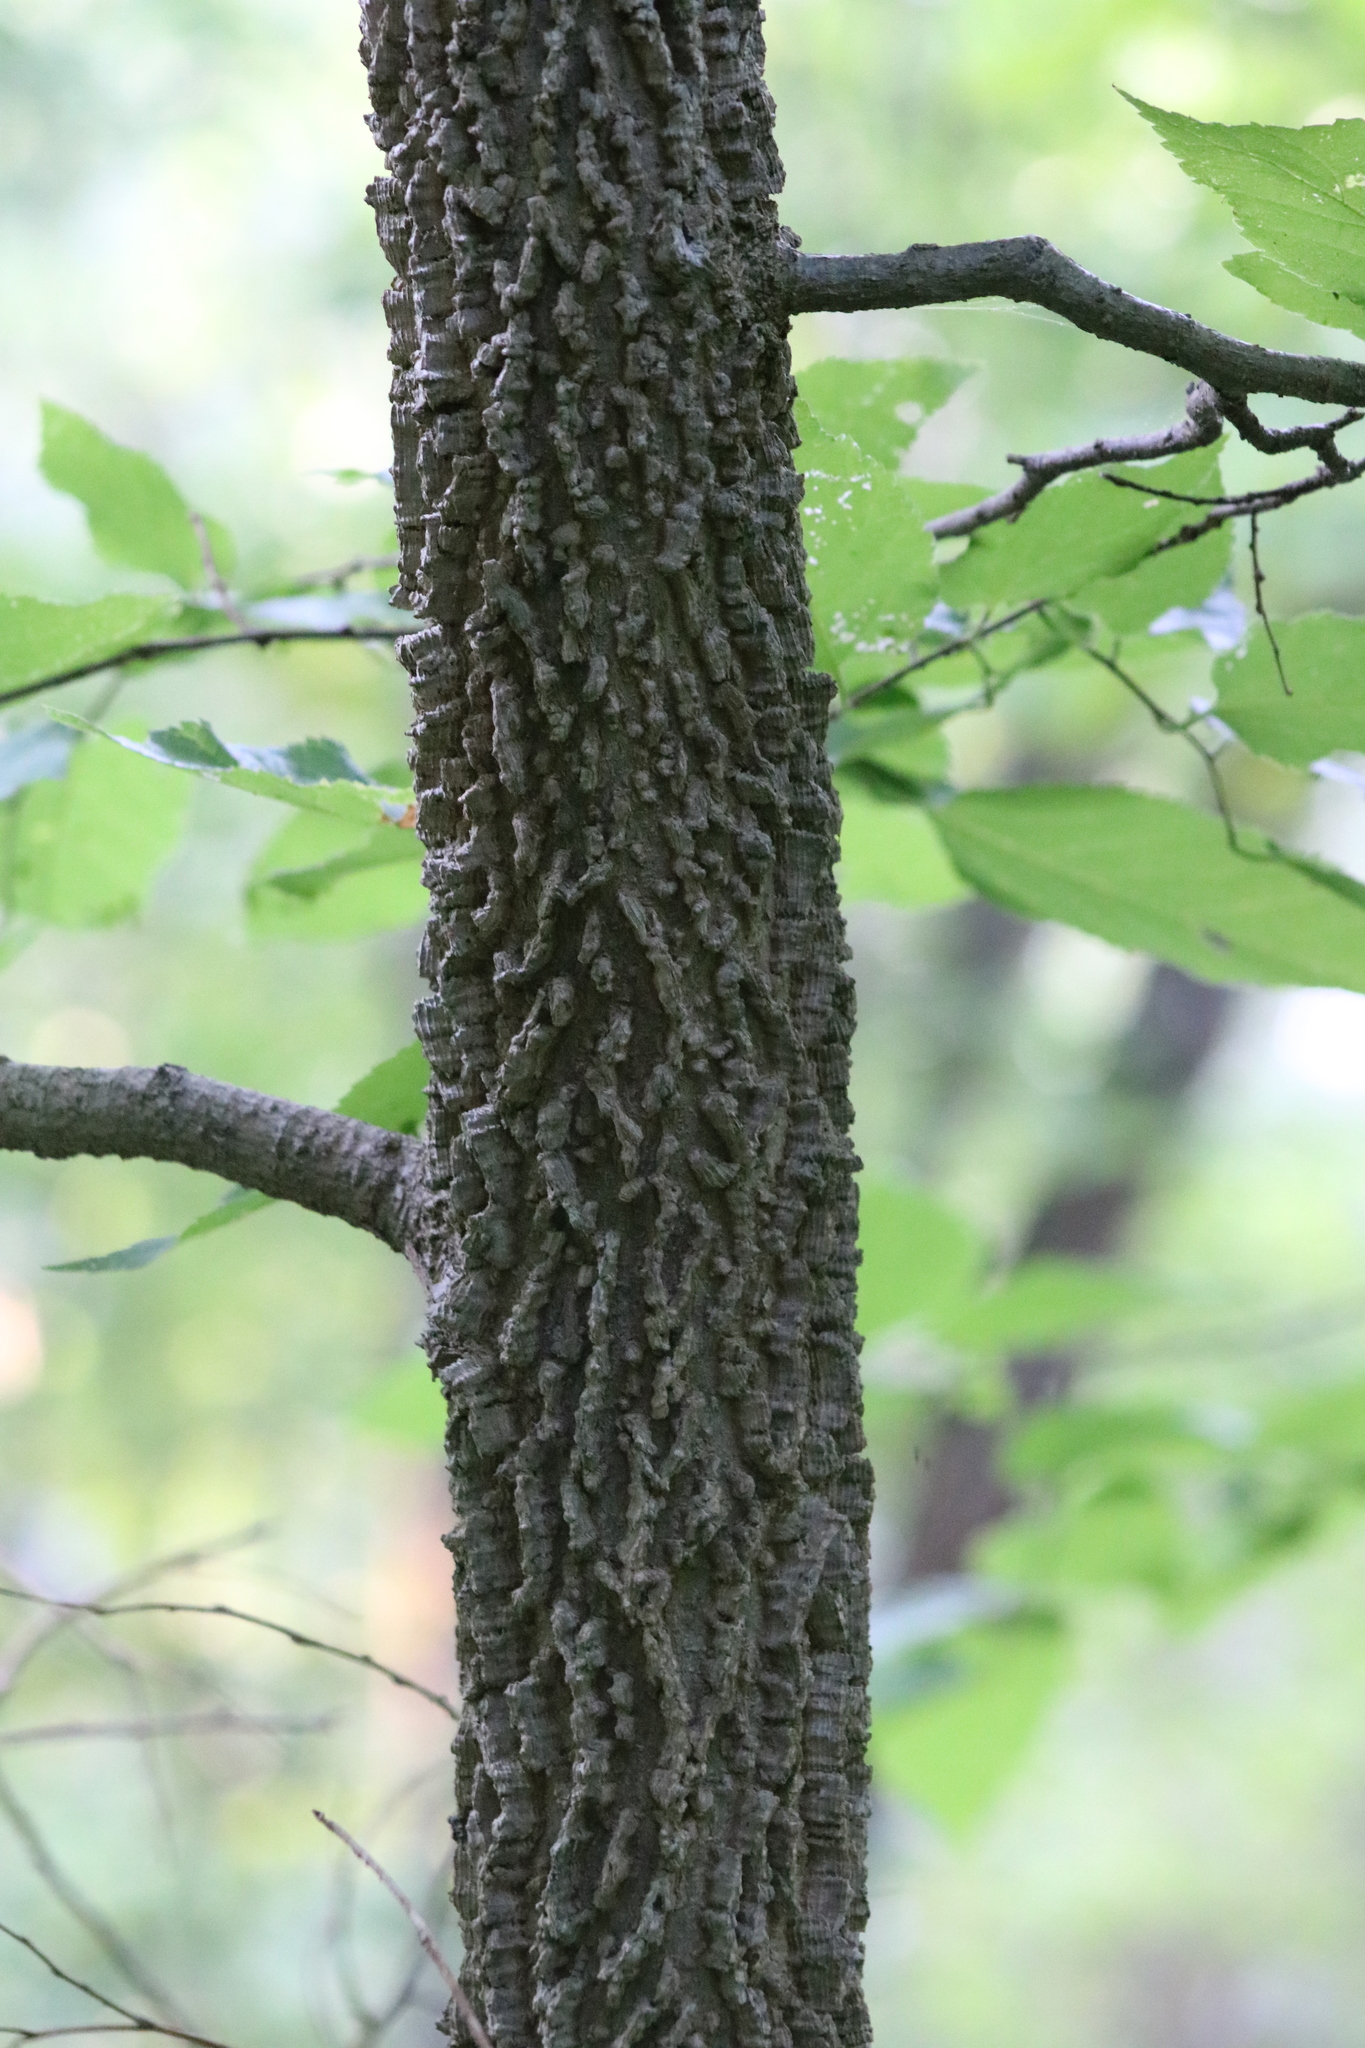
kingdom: Plantae
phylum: Tracheophyta
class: Magnoliopsida
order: Rosales
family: Cannabaceae
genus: Celtis
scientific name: Celtis occidentalis
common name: Common hackberry
